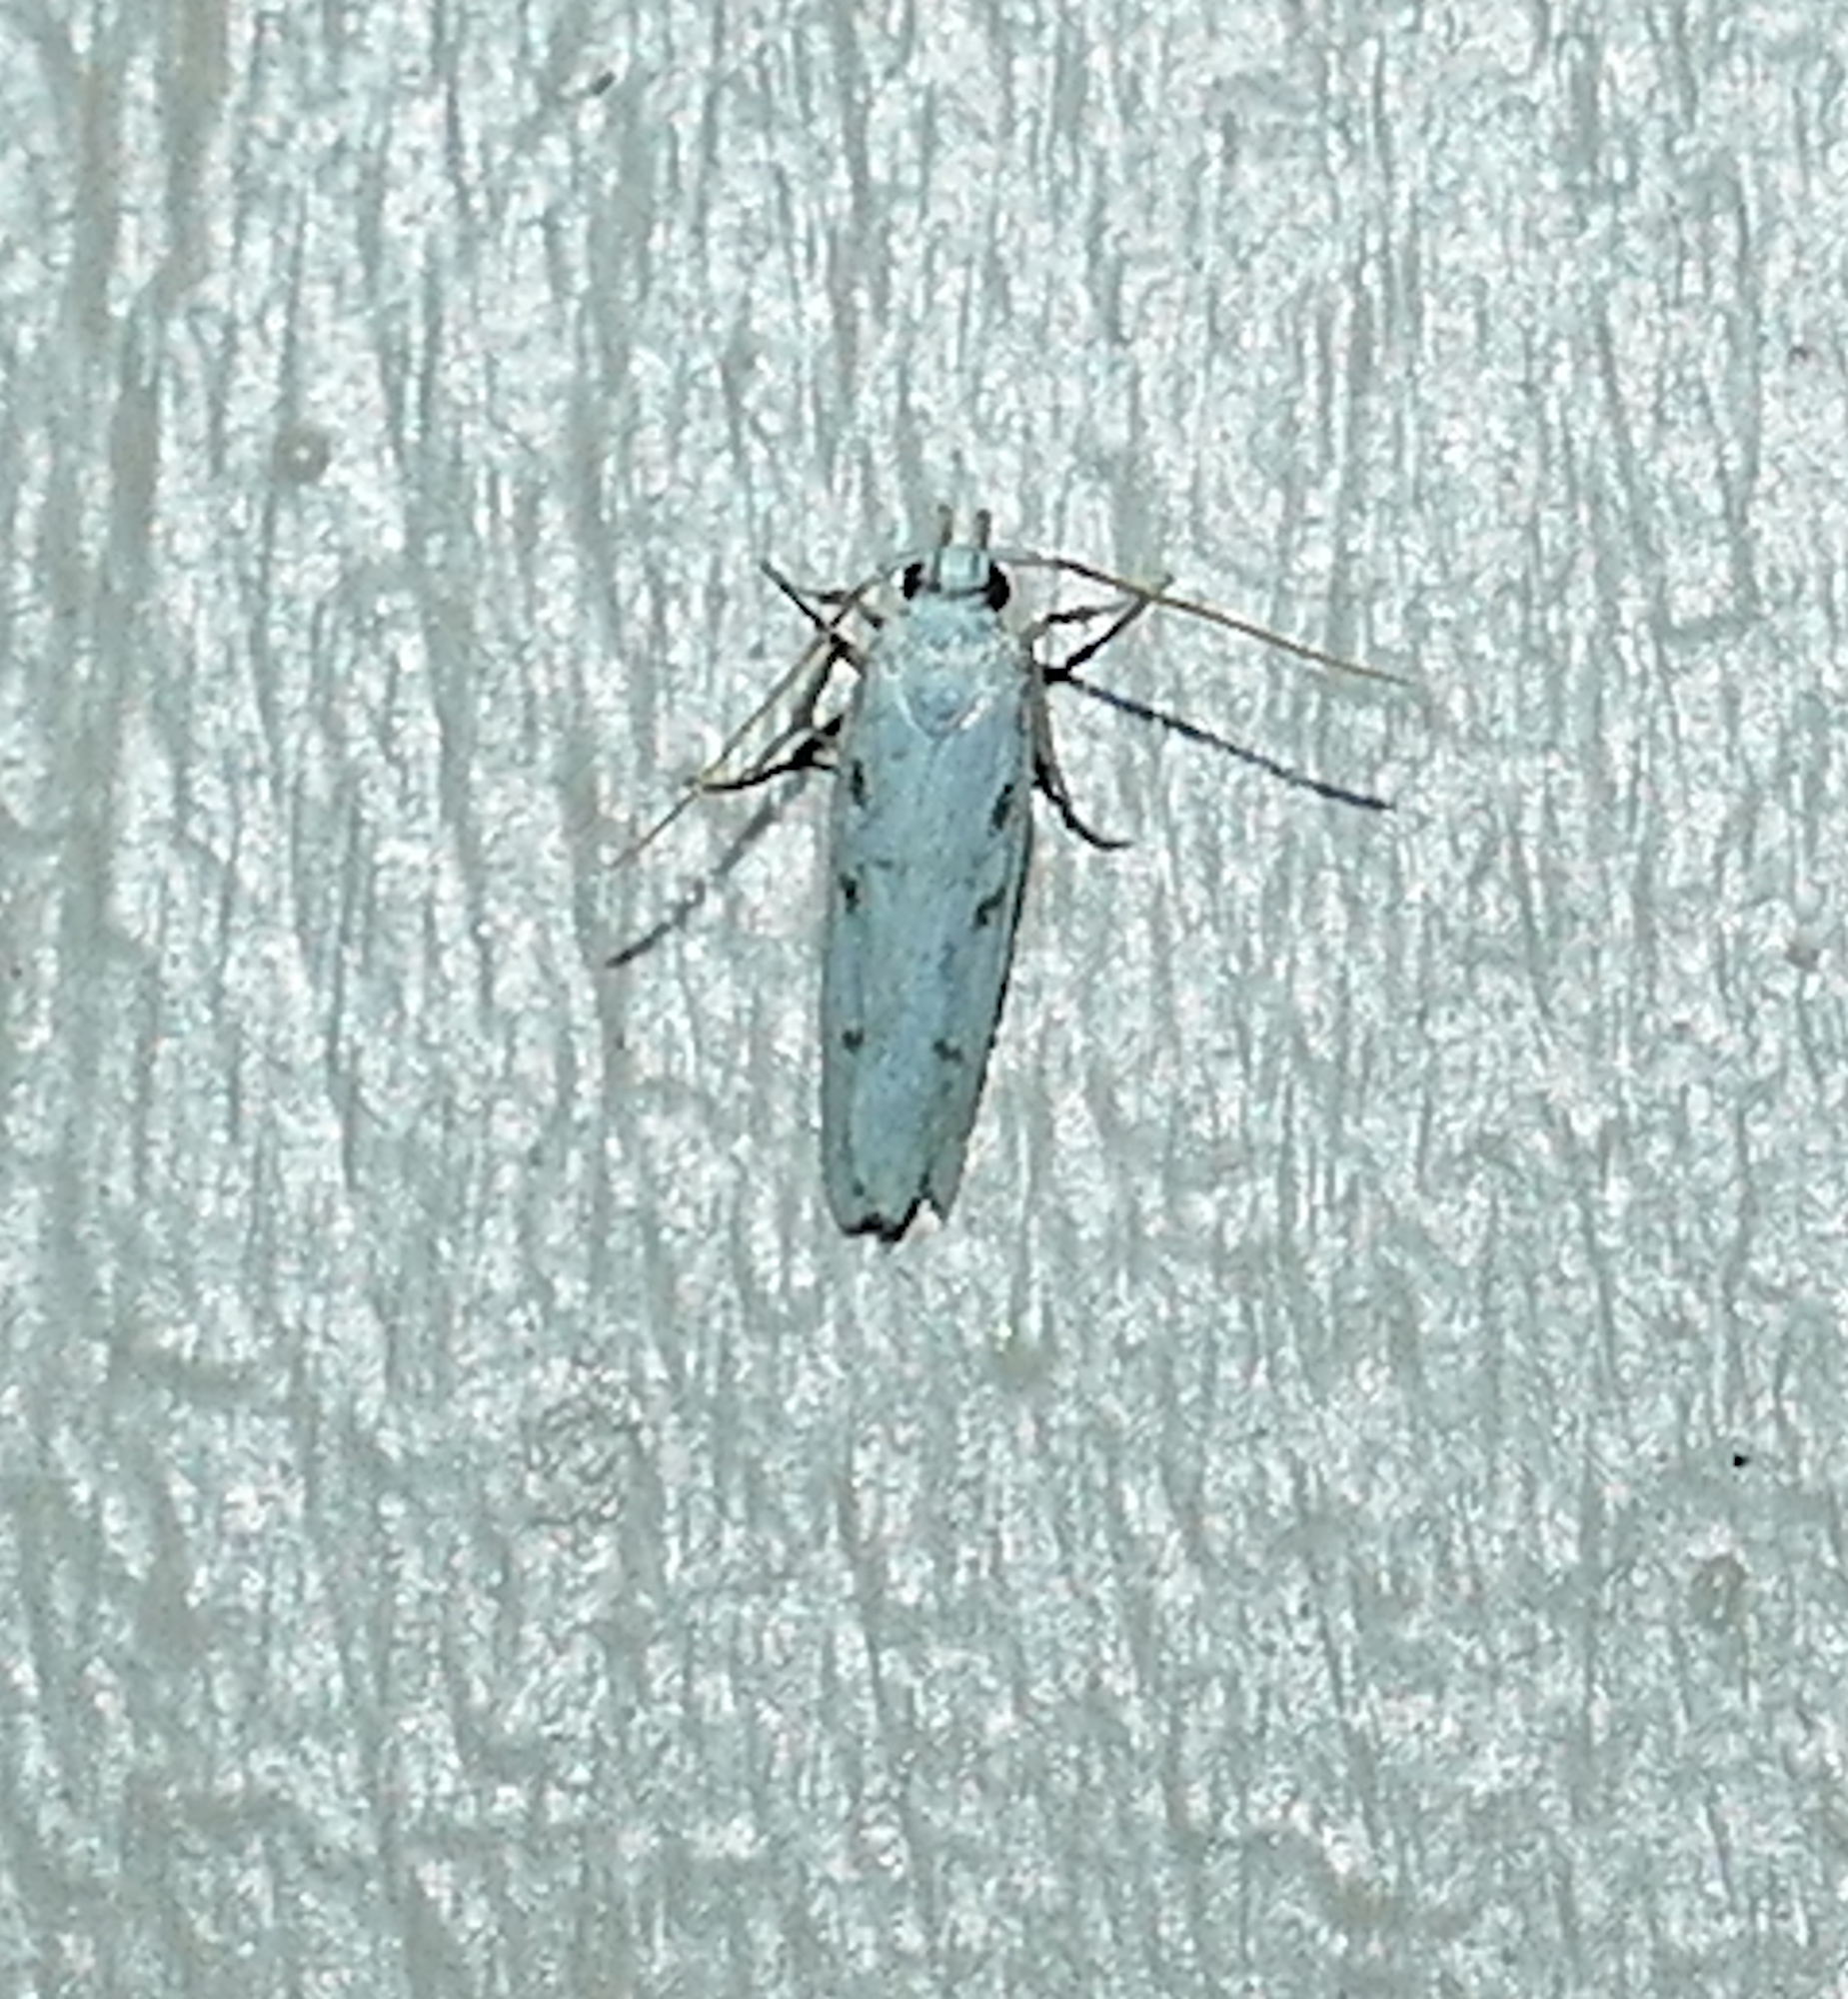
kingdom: Animalia
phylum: Arthropoda
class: Insecta
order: Lepidoptera
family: Autostichidae
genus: Glyphidocera
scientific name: Glyphidocera lactiflosella
